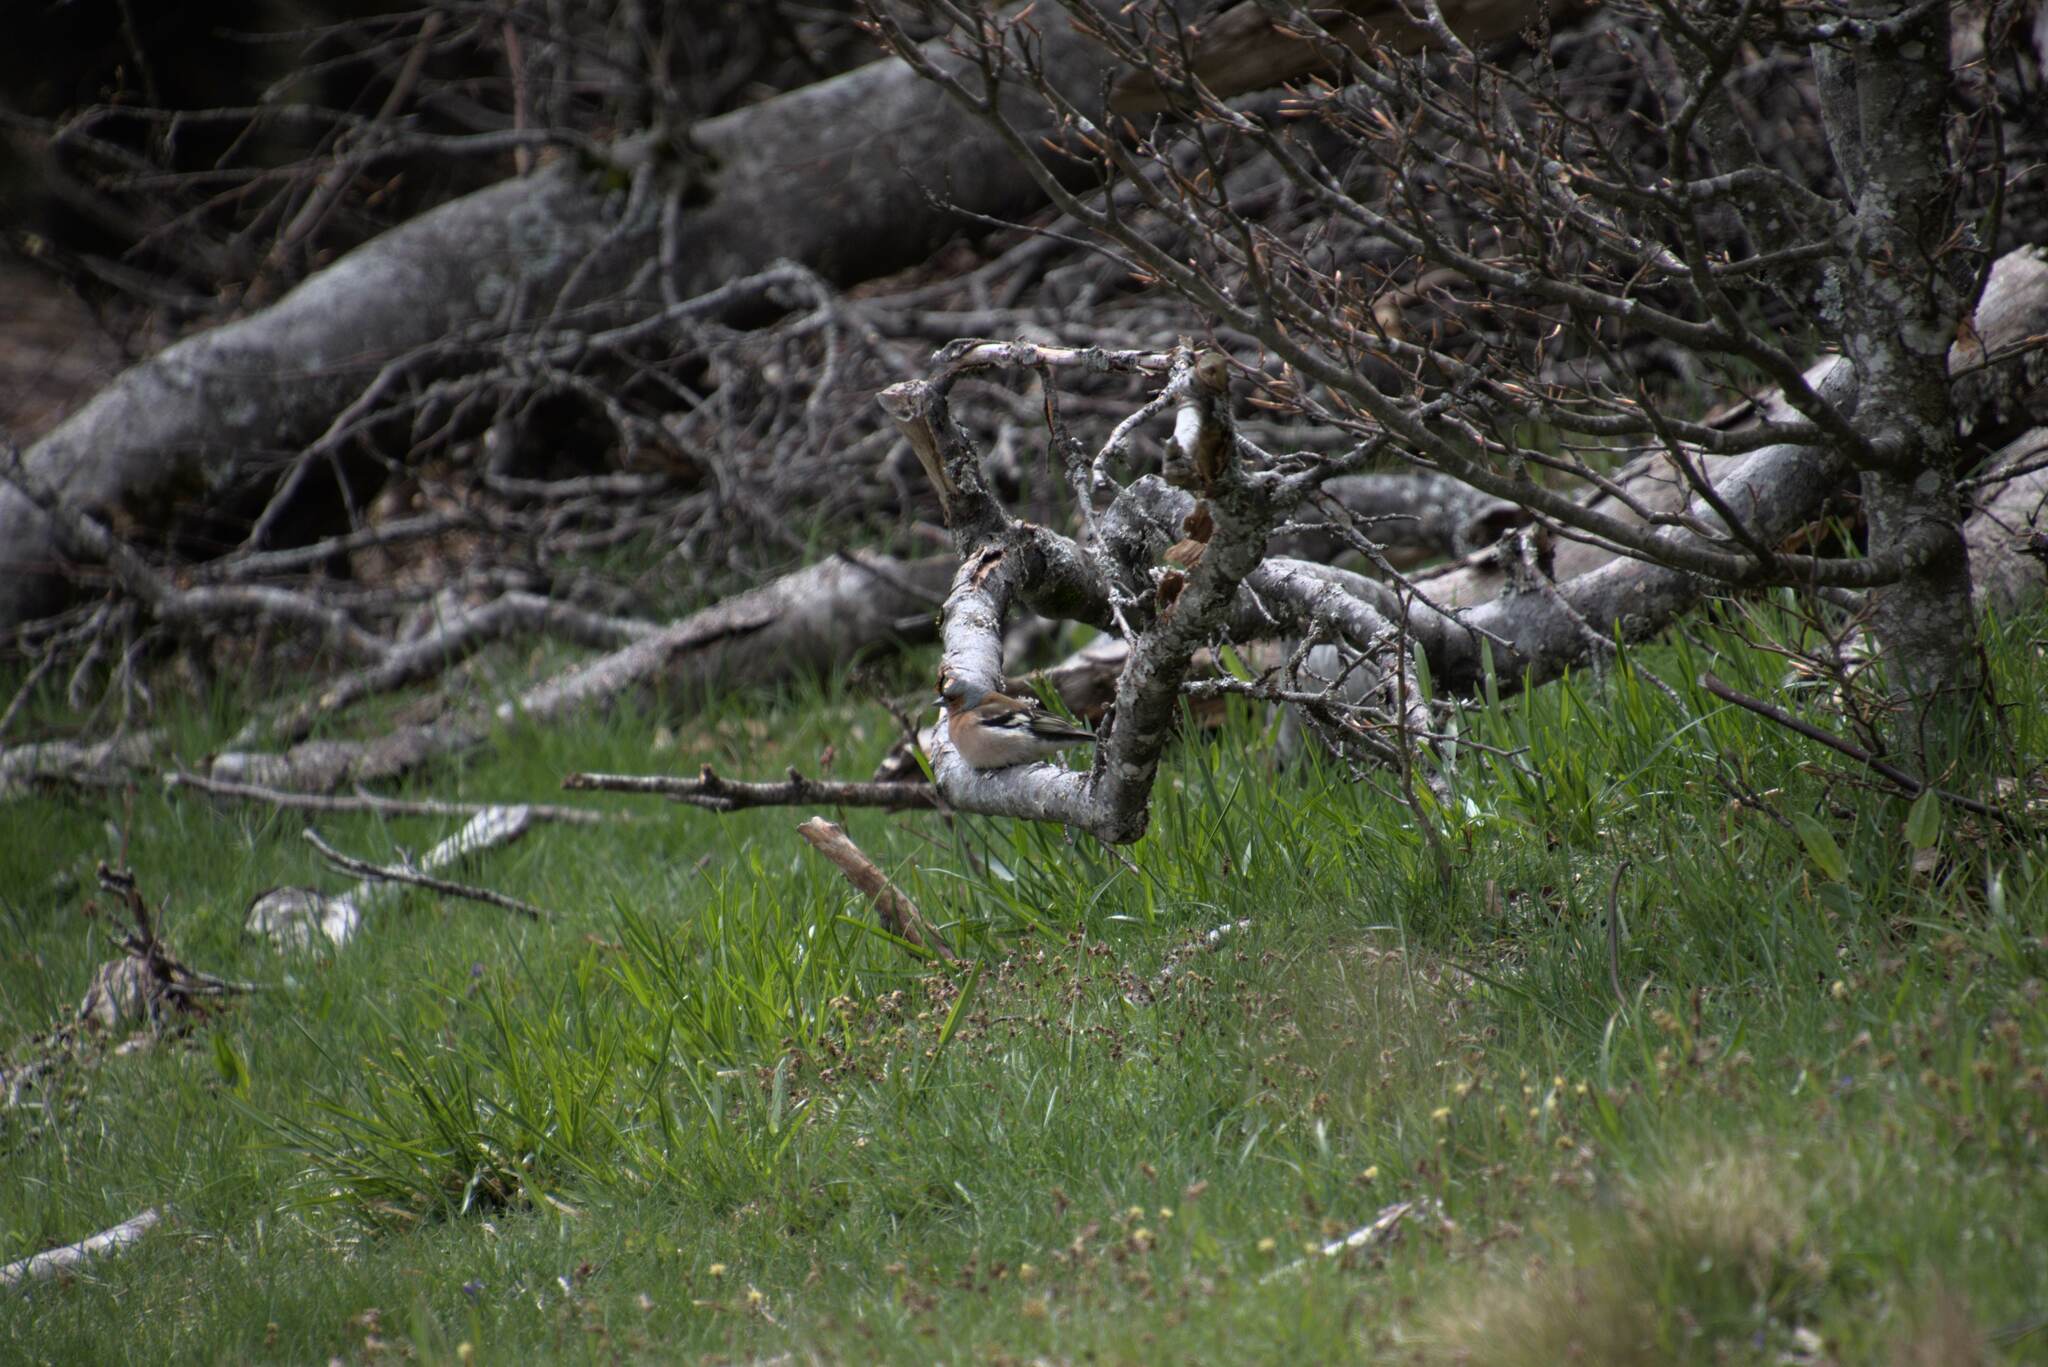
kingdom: Animalia
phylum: Chordata
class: Aves
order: Passeriformes
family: Fringillidae
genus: Fringilla
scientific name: Fringilla coelebs
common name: Common chaffinch
